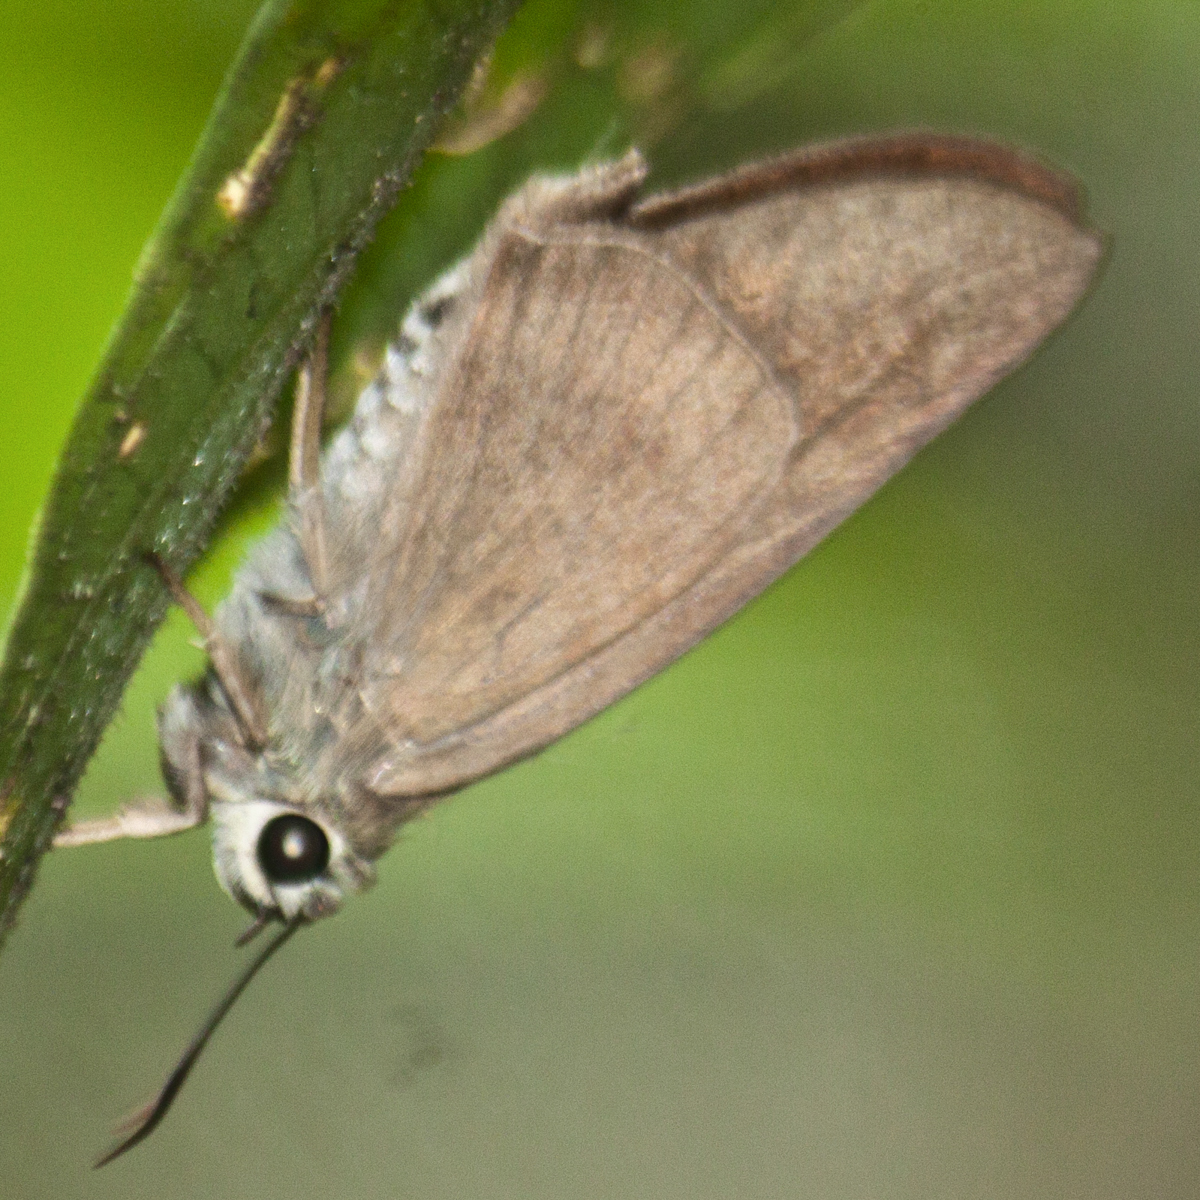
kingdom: Animalia
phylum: Arthropoda
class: Insecta
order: Lepidoptera
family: Hesperiidae
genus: Badamia
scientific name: Badamia exclamationis
